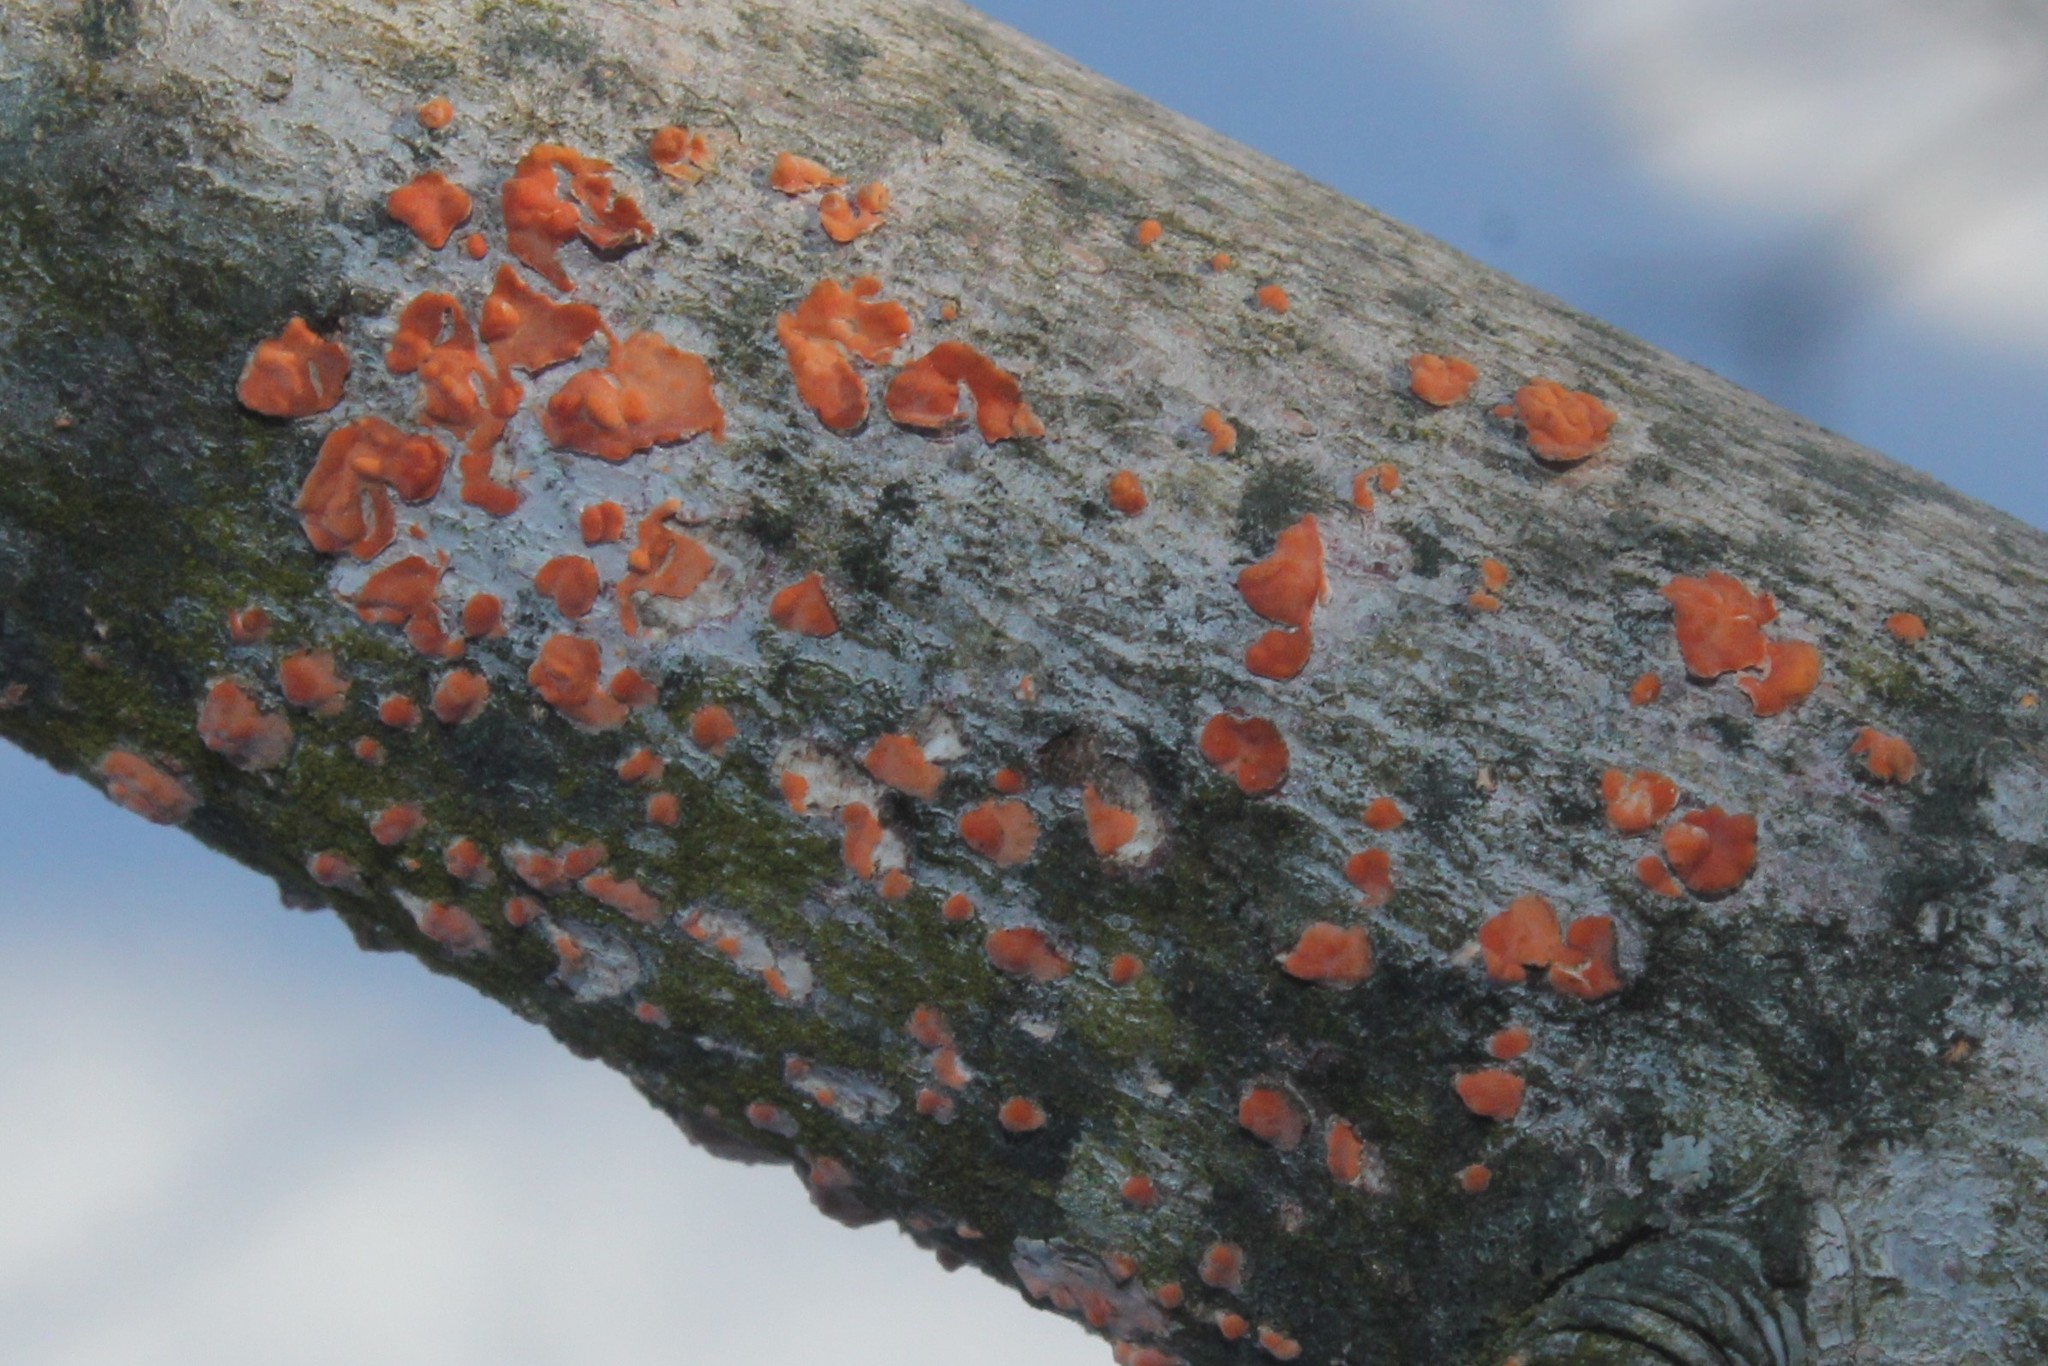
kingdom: Fungi
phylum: Basidiomycota
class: Agaricomycetes
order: Russulales
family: Peniophoraceae
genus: Peniophora
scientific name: Peniophora rufa
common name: Red tree brain fungus
